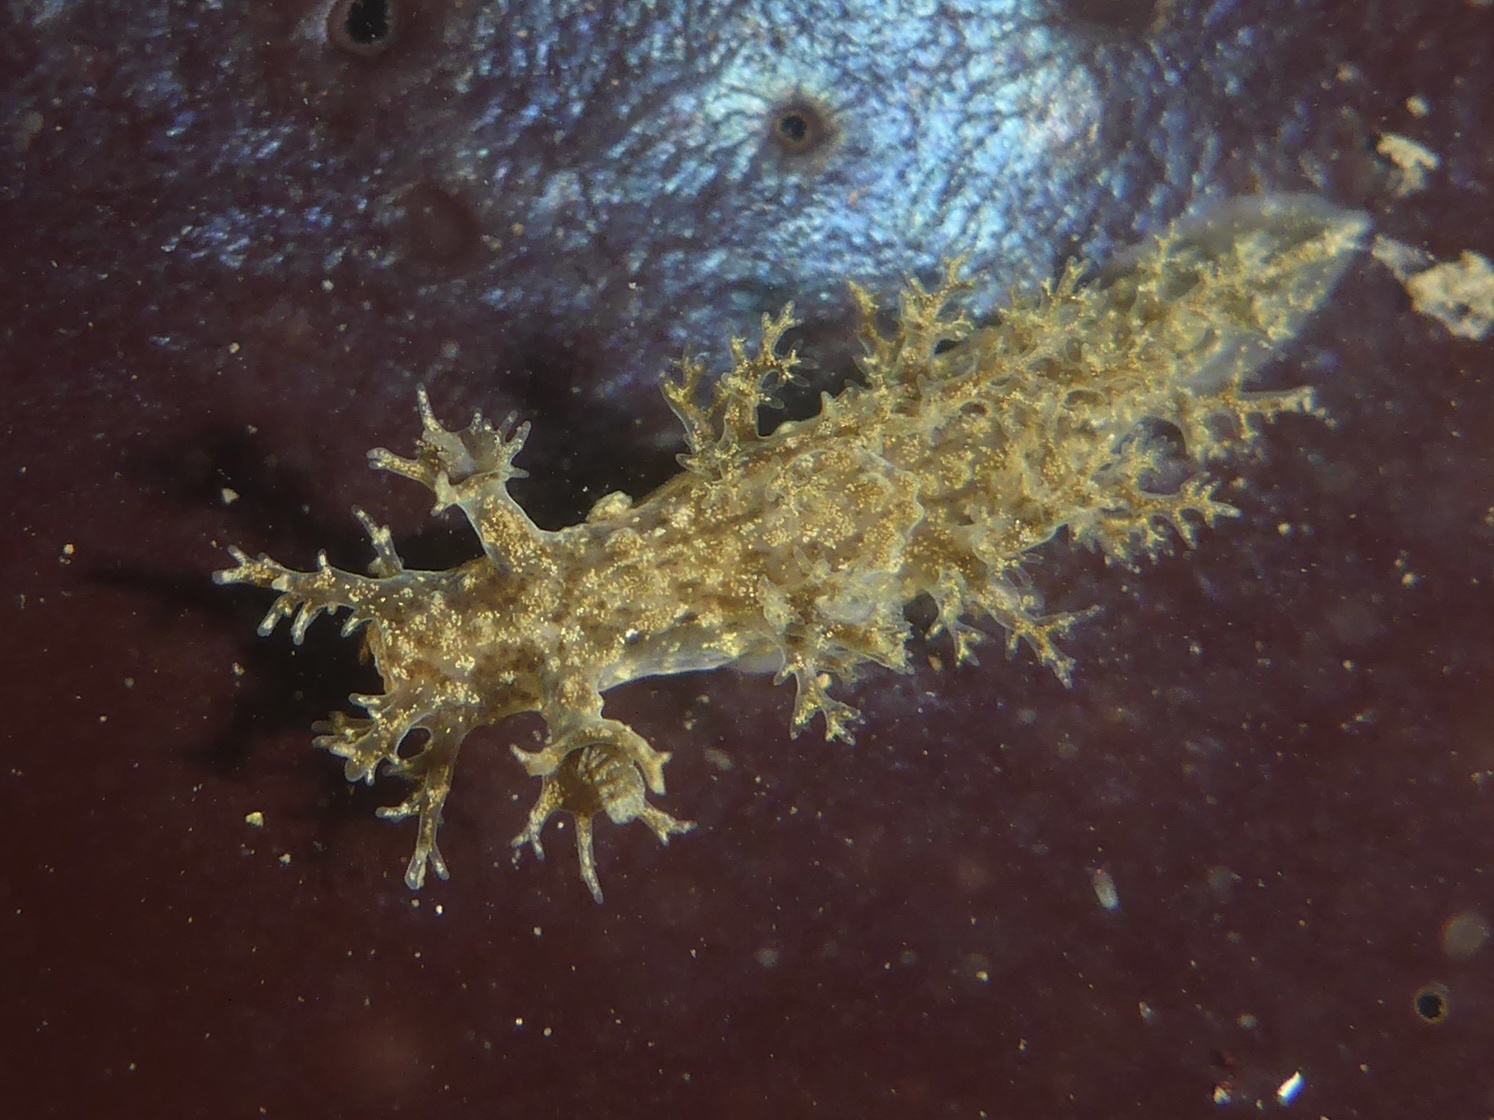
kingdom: Animalia
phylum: Mollusca
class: Gastropoda
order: Nudibranchia
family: Dendronotidae
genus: Dendronotus
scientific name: Dendronotus venustus
